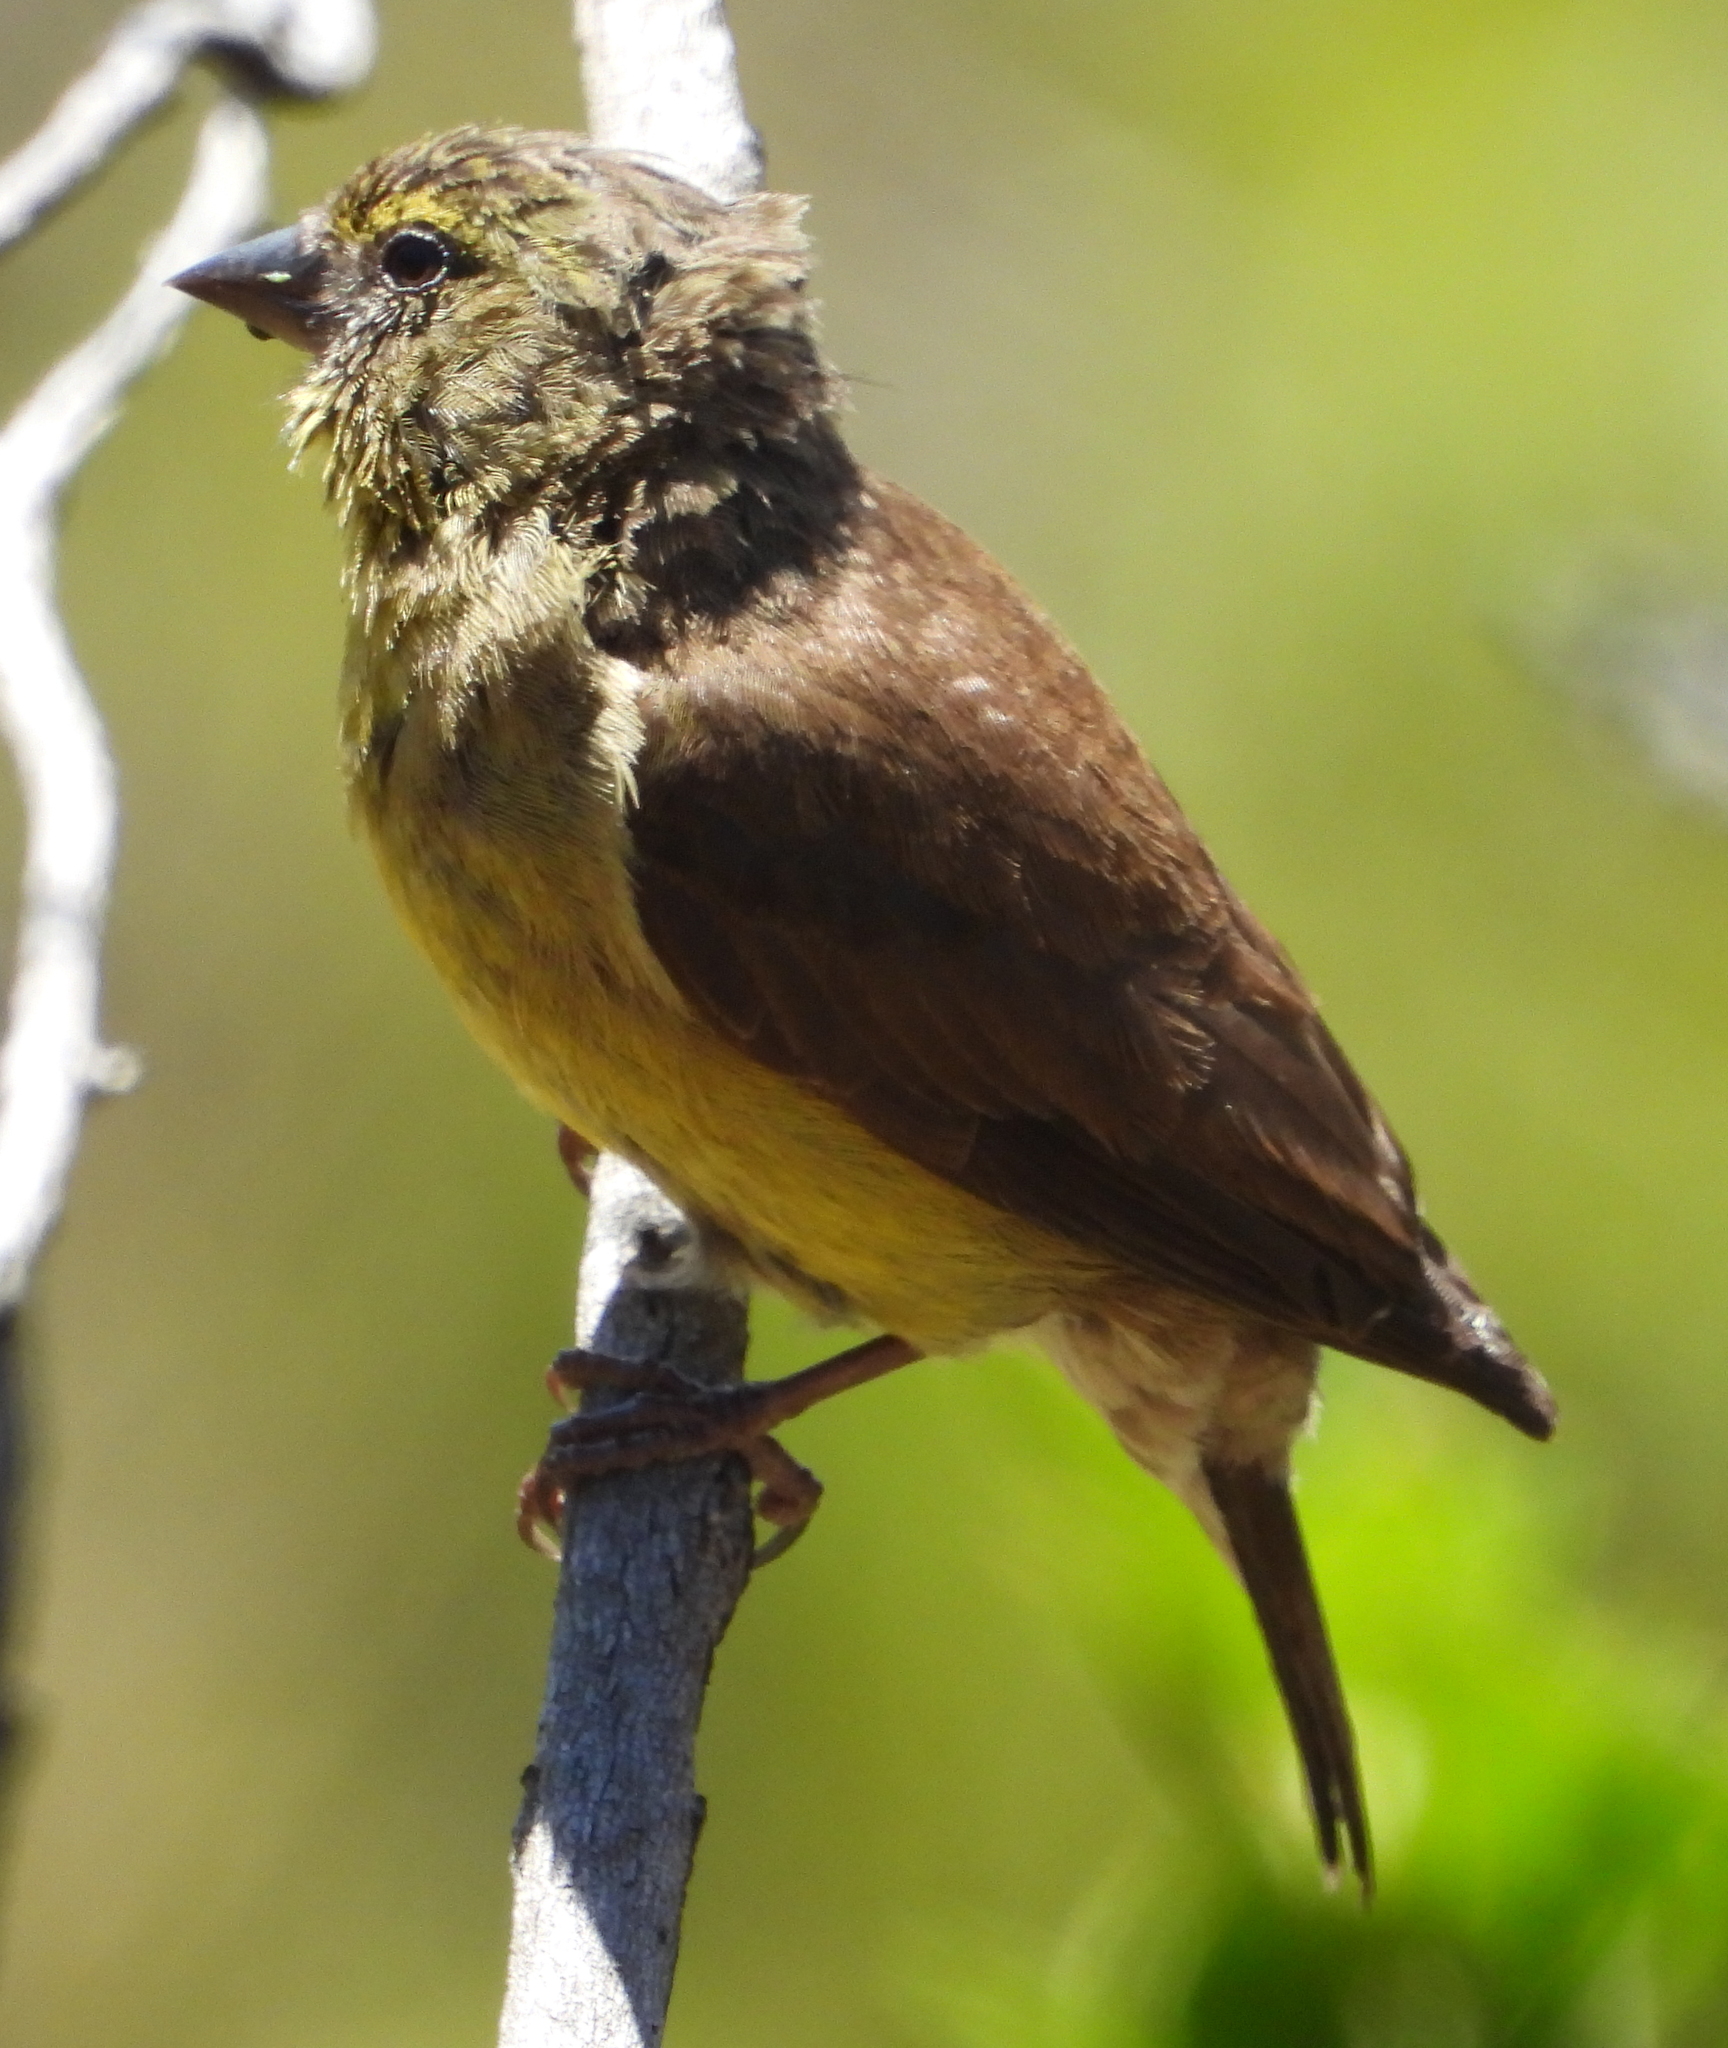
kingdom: Animalia
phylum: Chordata
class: Aves
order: Passeriformes
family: Fringillidae
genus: Crithagra
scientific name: Crithagra totta
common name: Cape siskin
